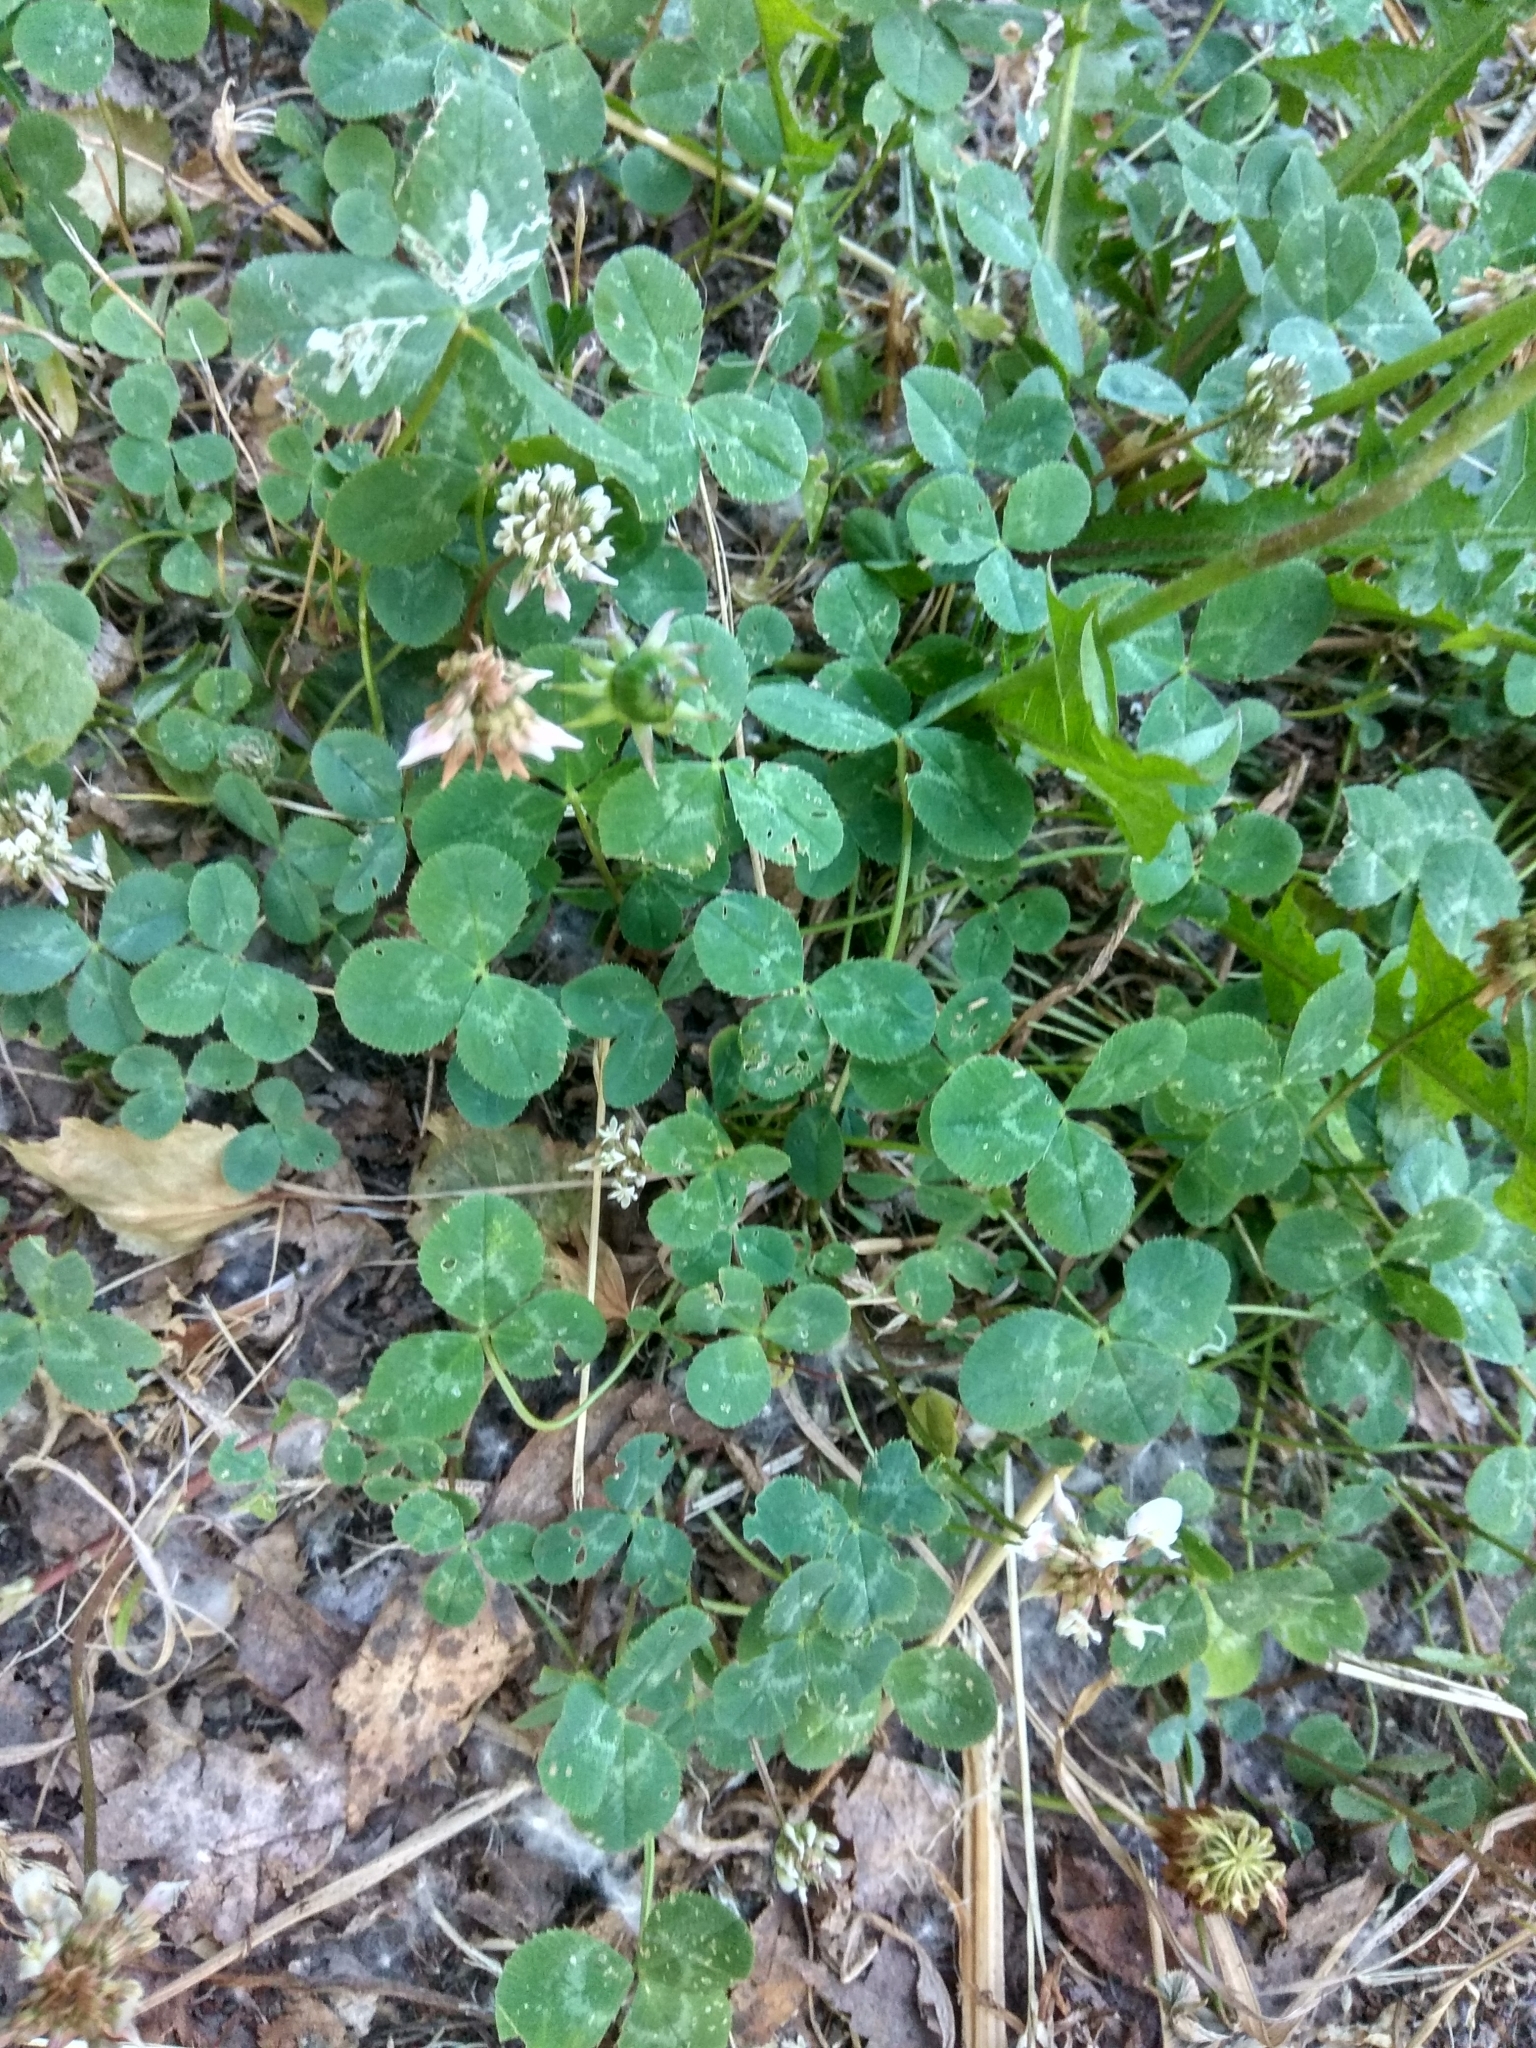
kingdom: Plantae
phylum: Tracheophyta
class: Magnoliopsida
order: Fabales
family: Fabaceae
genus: Trifolium
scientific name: Trifolium repens
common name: White clover
